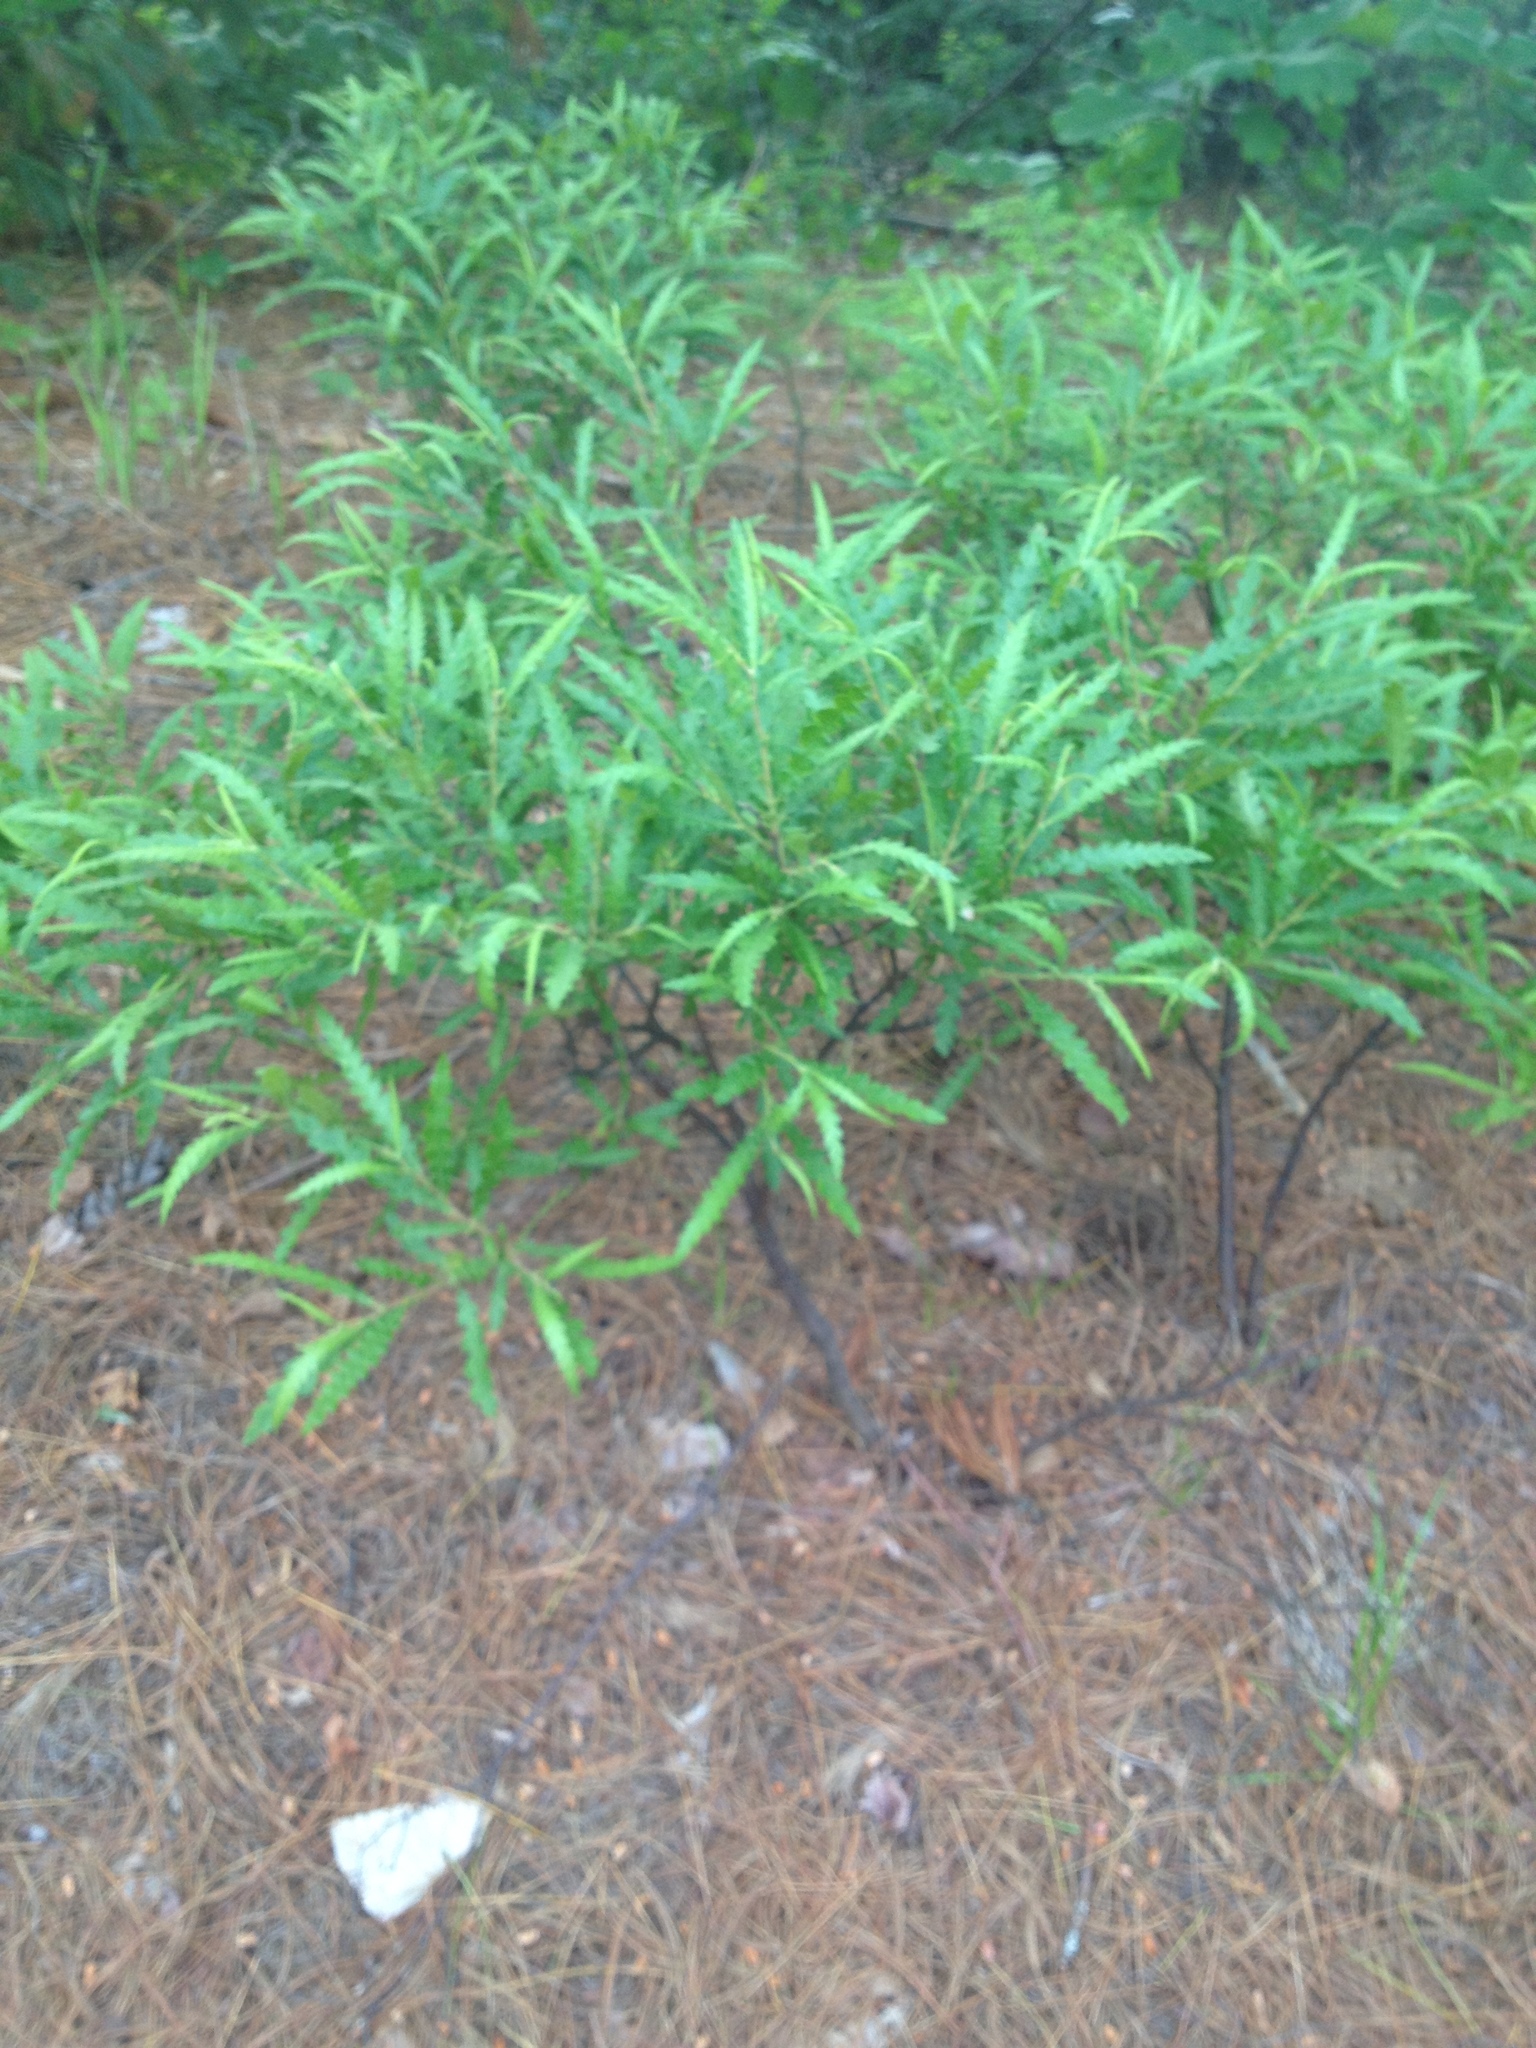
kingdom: Plantae
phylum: Tracheophyta
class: Magnoliopsida
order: Fagales
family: Myricaceae
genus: Comptonia
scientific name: Comptonia peregrina
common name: Sweet-fern
